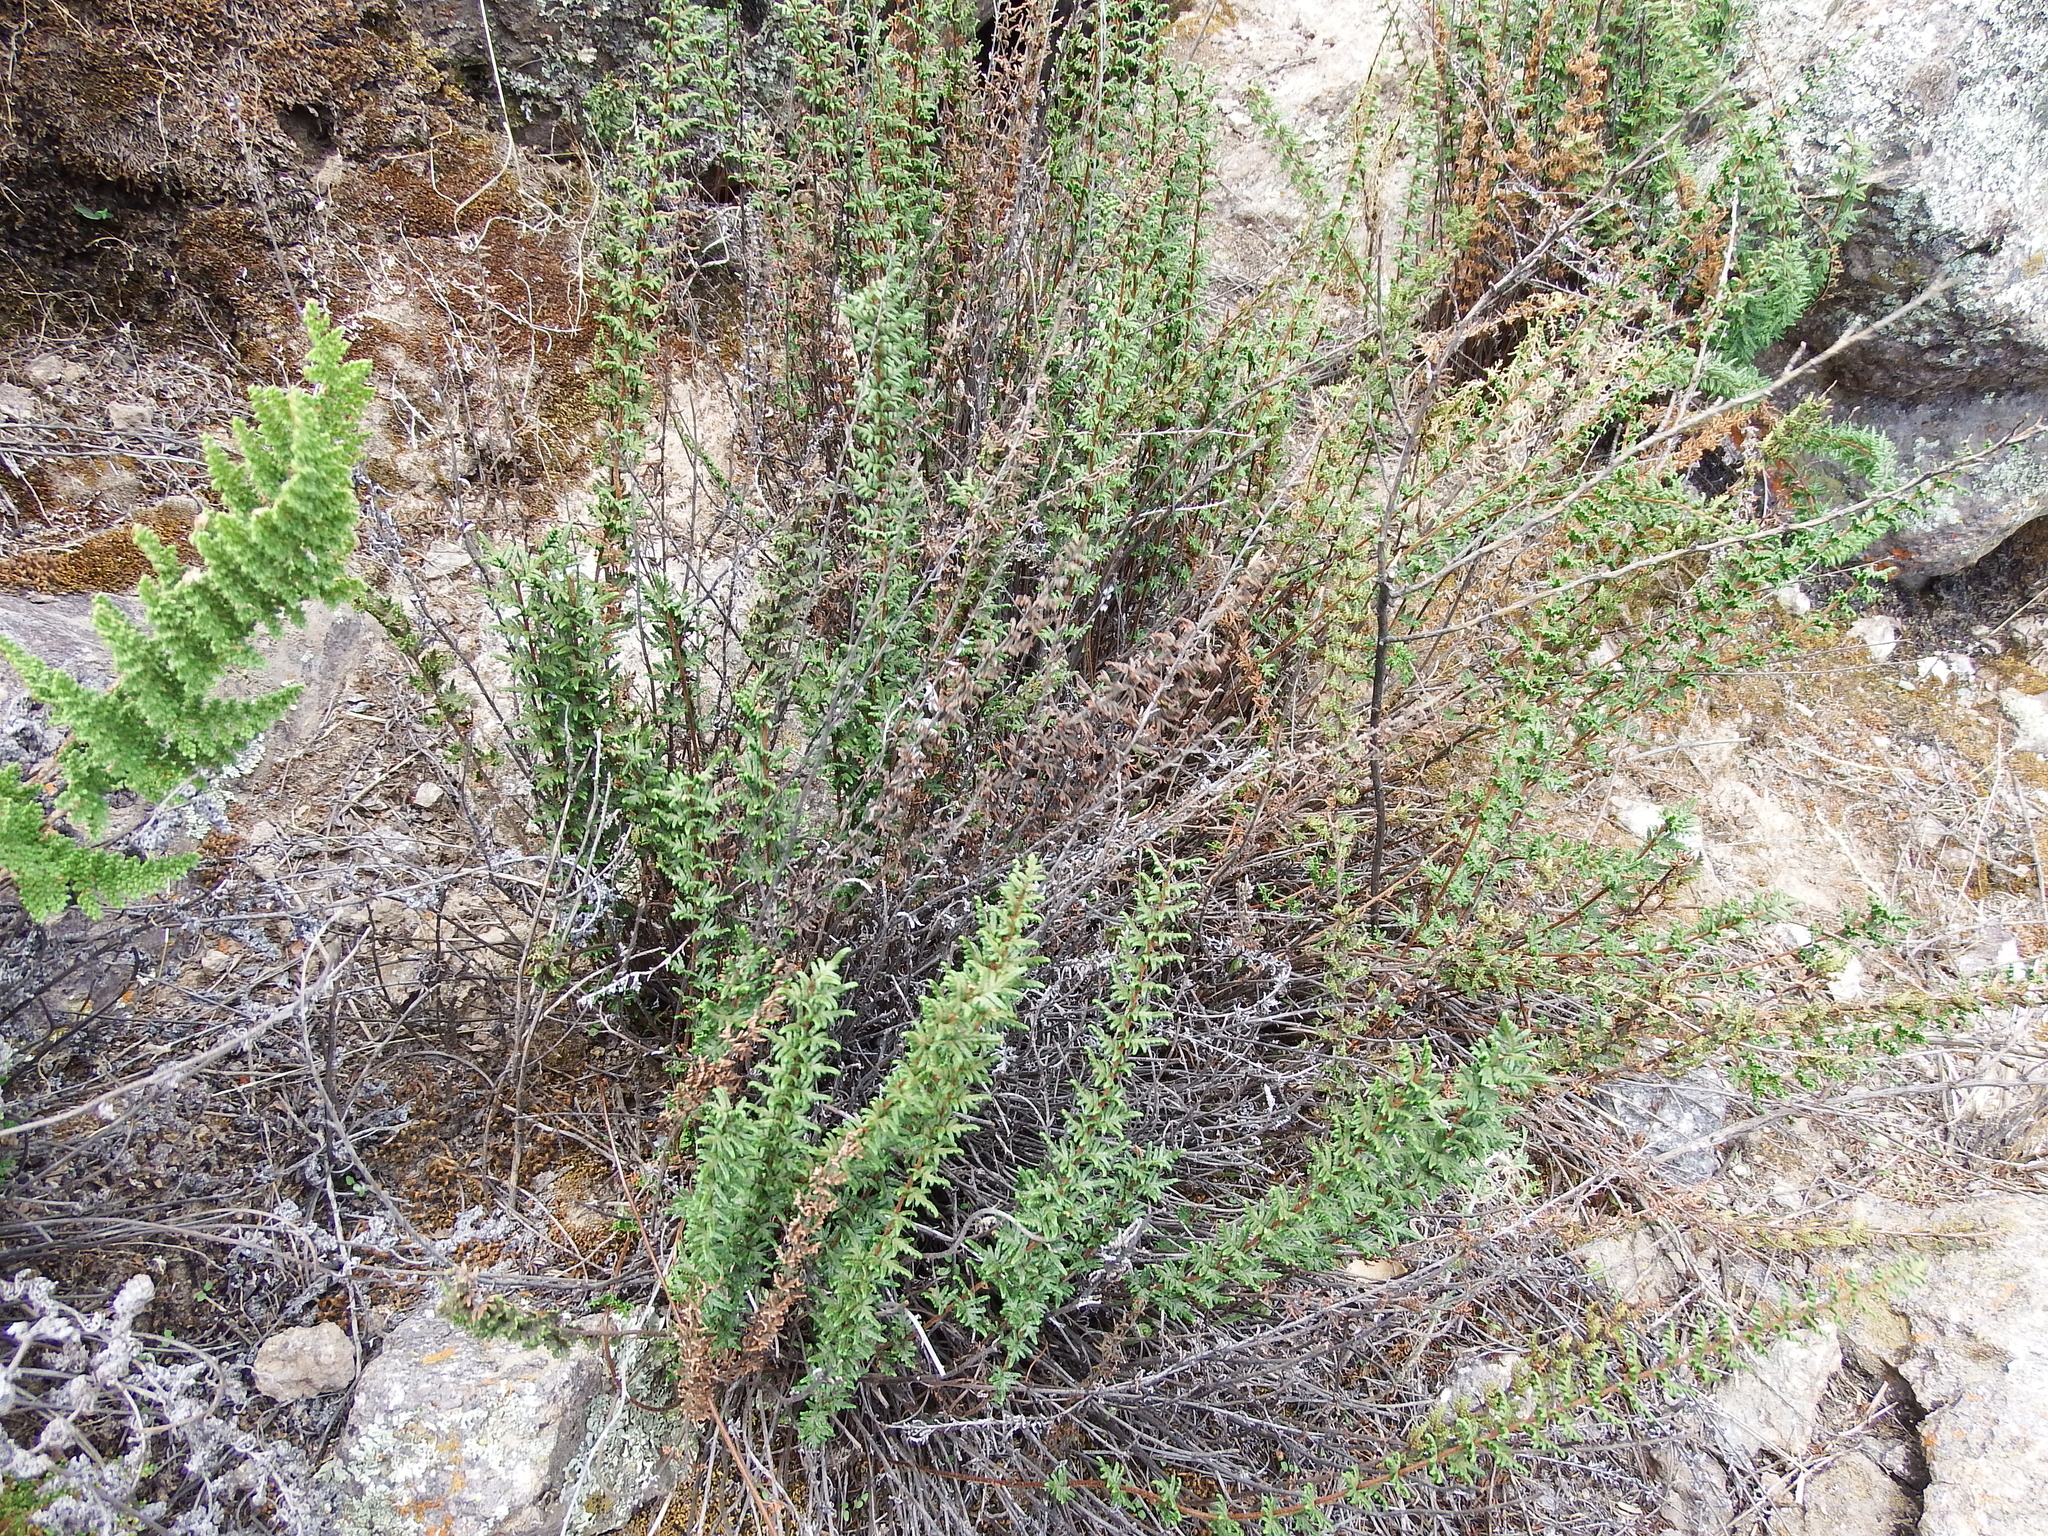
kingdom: Plantae
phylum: Tracheophyta
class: Polypodiopsida
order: Polypodiales
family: Pteridaceae
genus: Cheilanthes
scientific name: Cheilanthes pruinata
